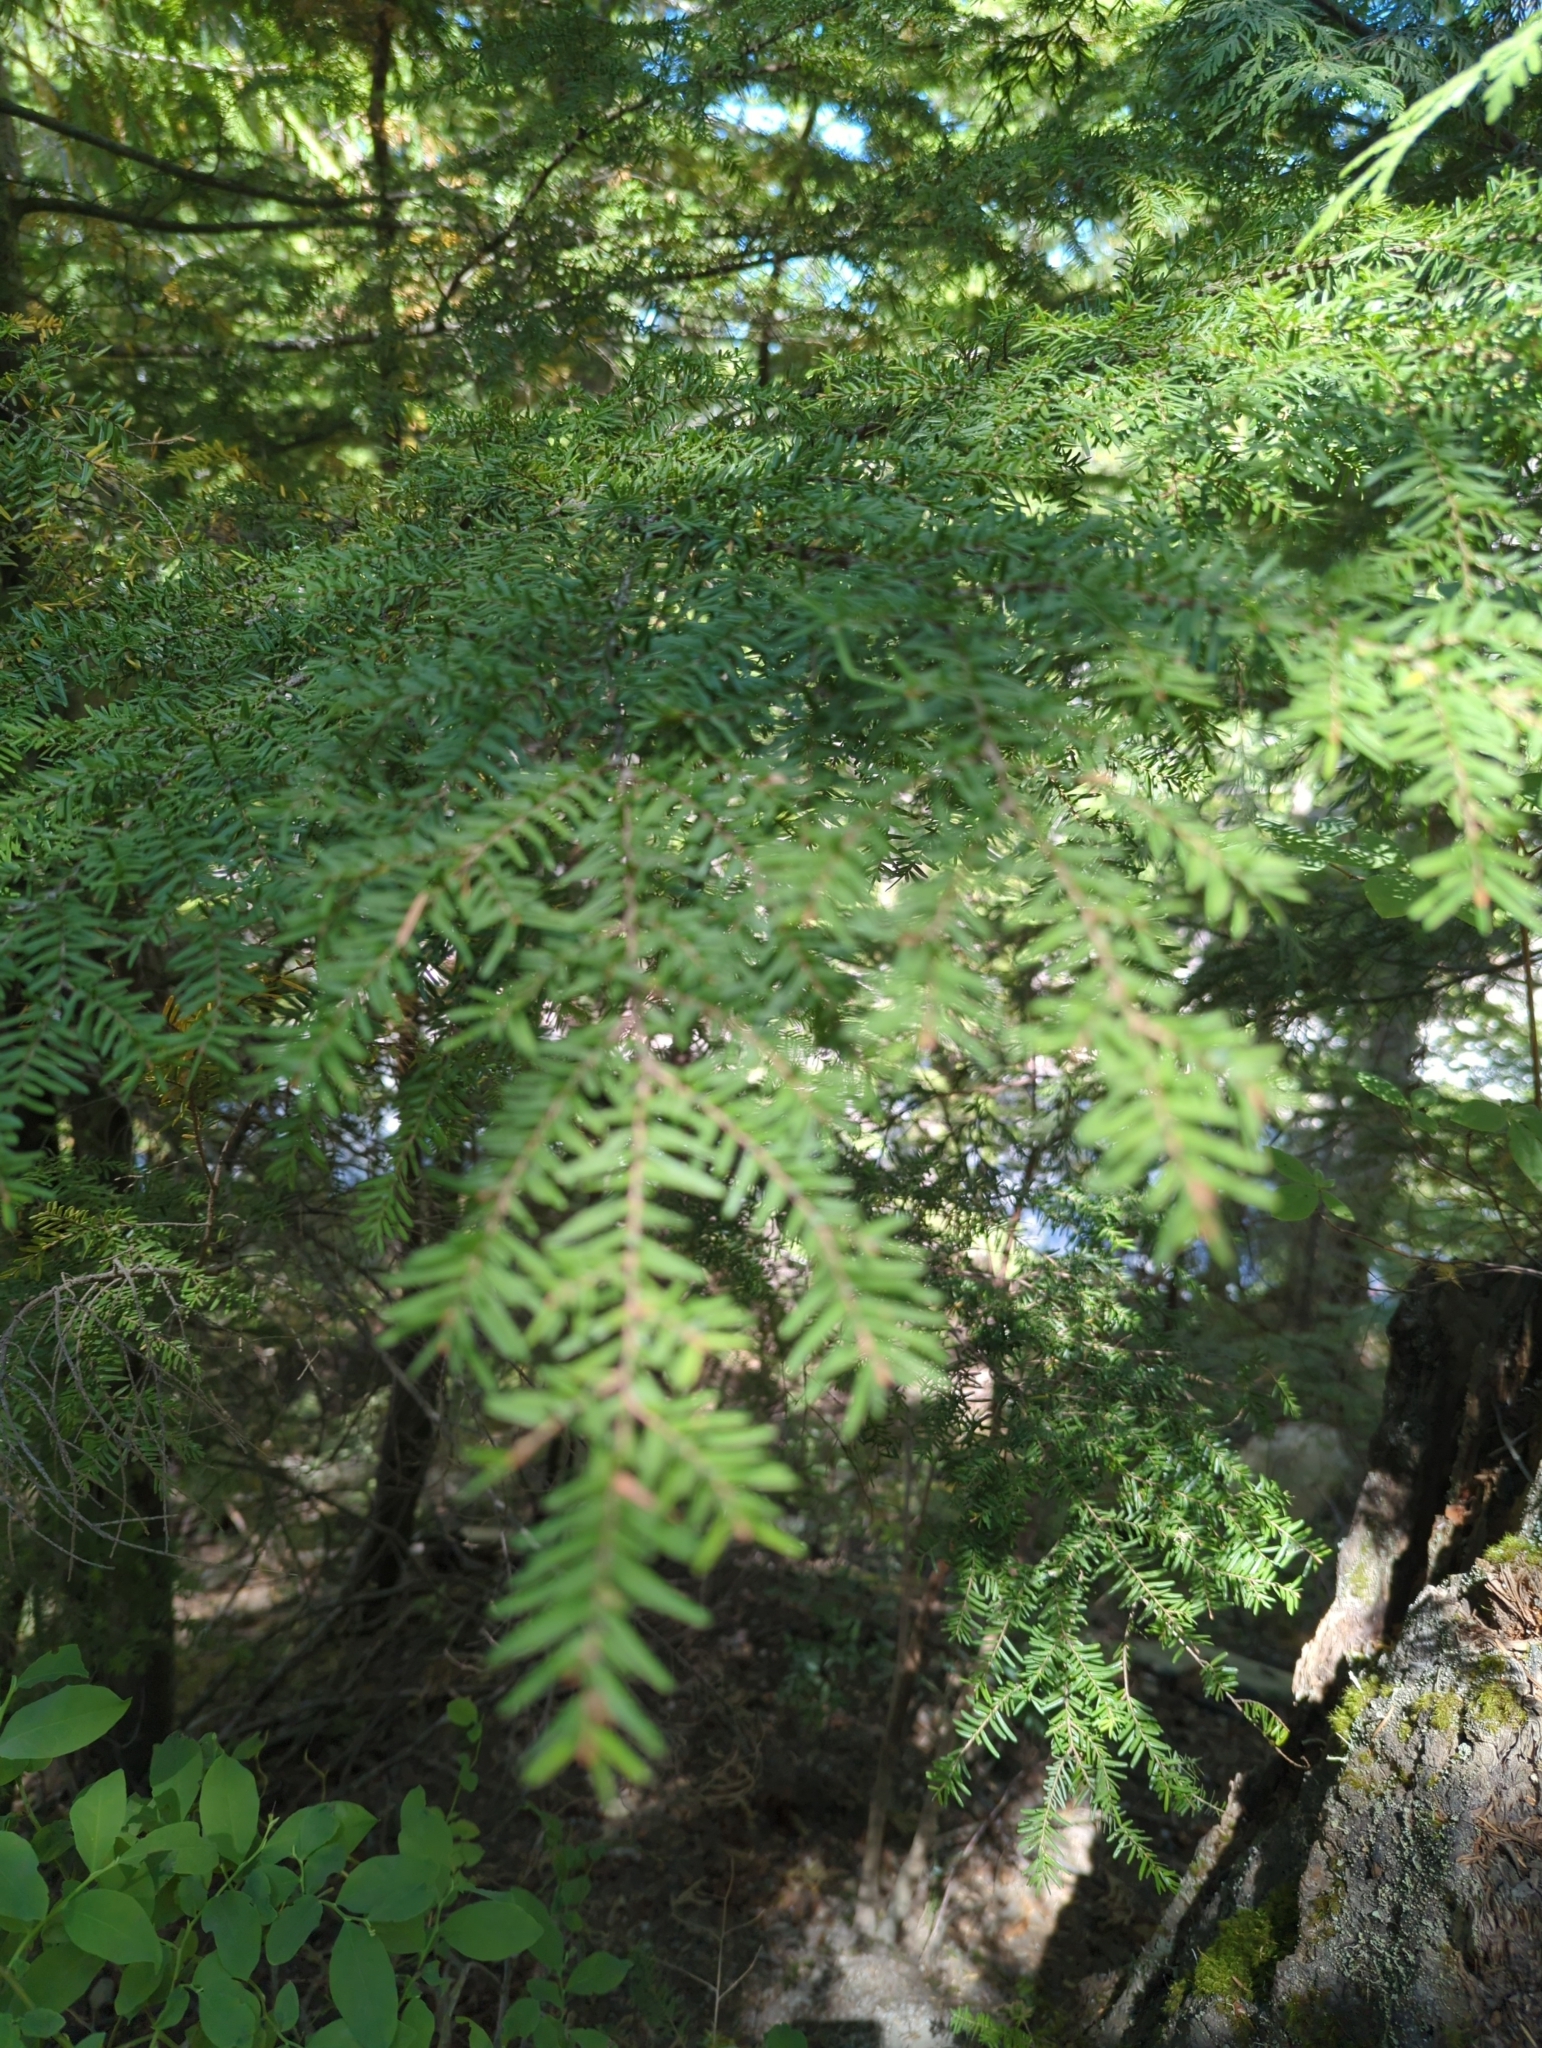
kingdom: Plantae
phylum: Tracheophyta
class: Pinopsida
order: Pinales
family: Pinaceae
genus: Tsuga
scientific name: Tsuga heterophylla
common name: Western hemlock
